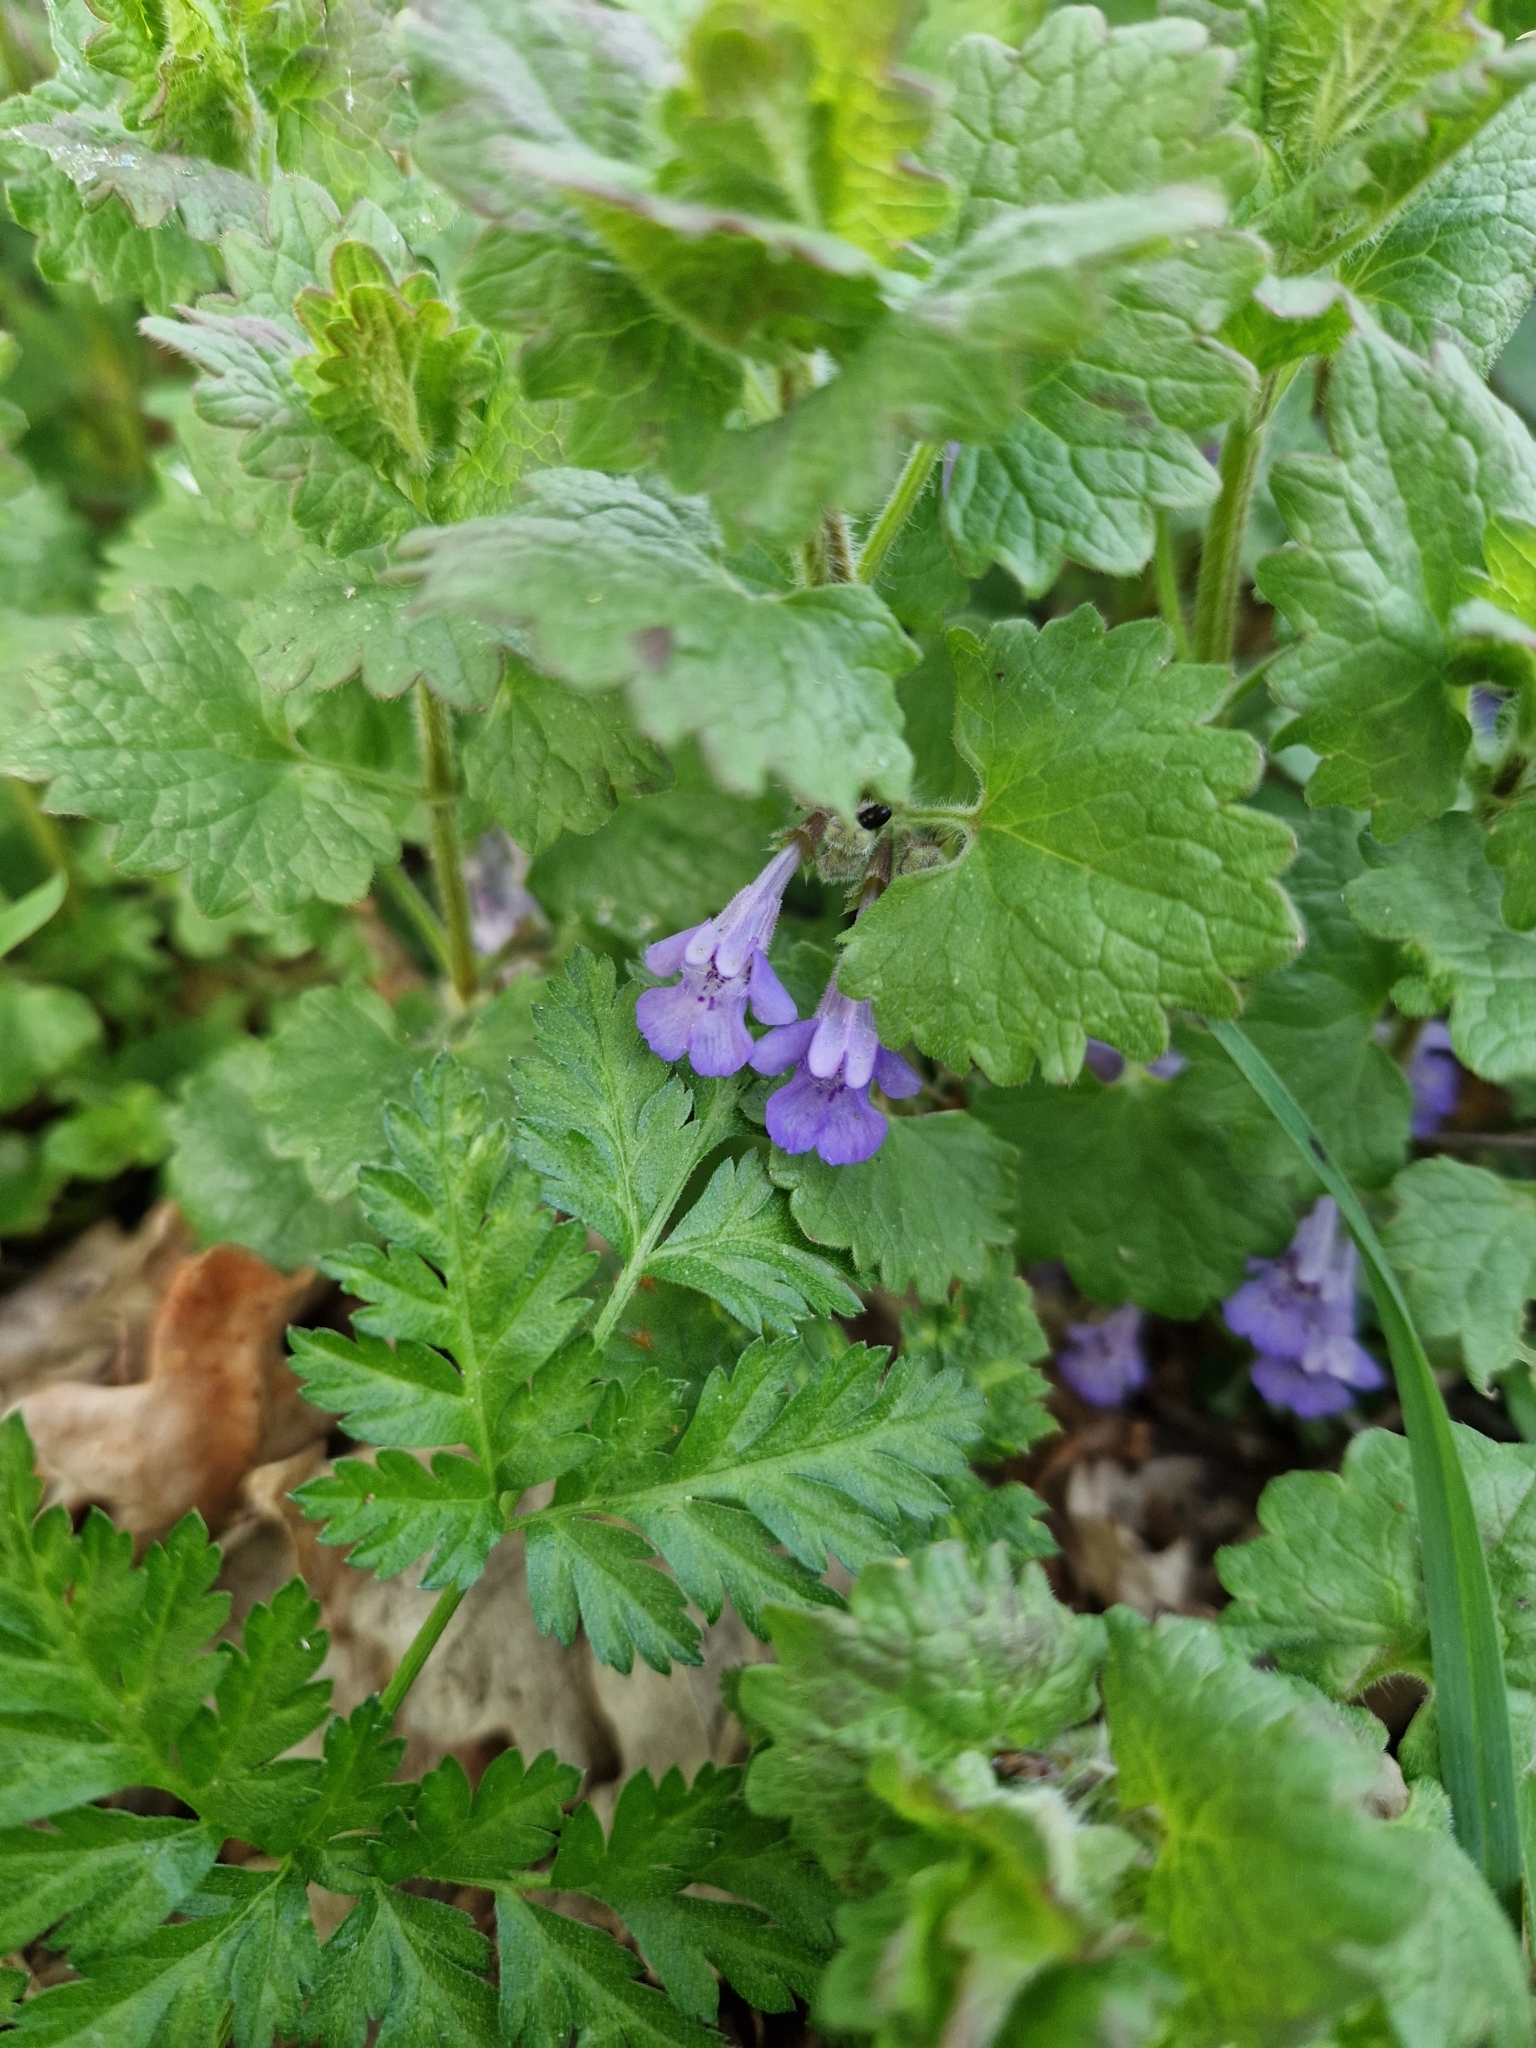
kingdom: Plantae
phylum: Tracheophyta
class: Magnoliopsida
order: Lamiales
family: Lamiaceae
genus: Glechoma
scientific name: Glechoma hederacea
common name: Ground ivy
